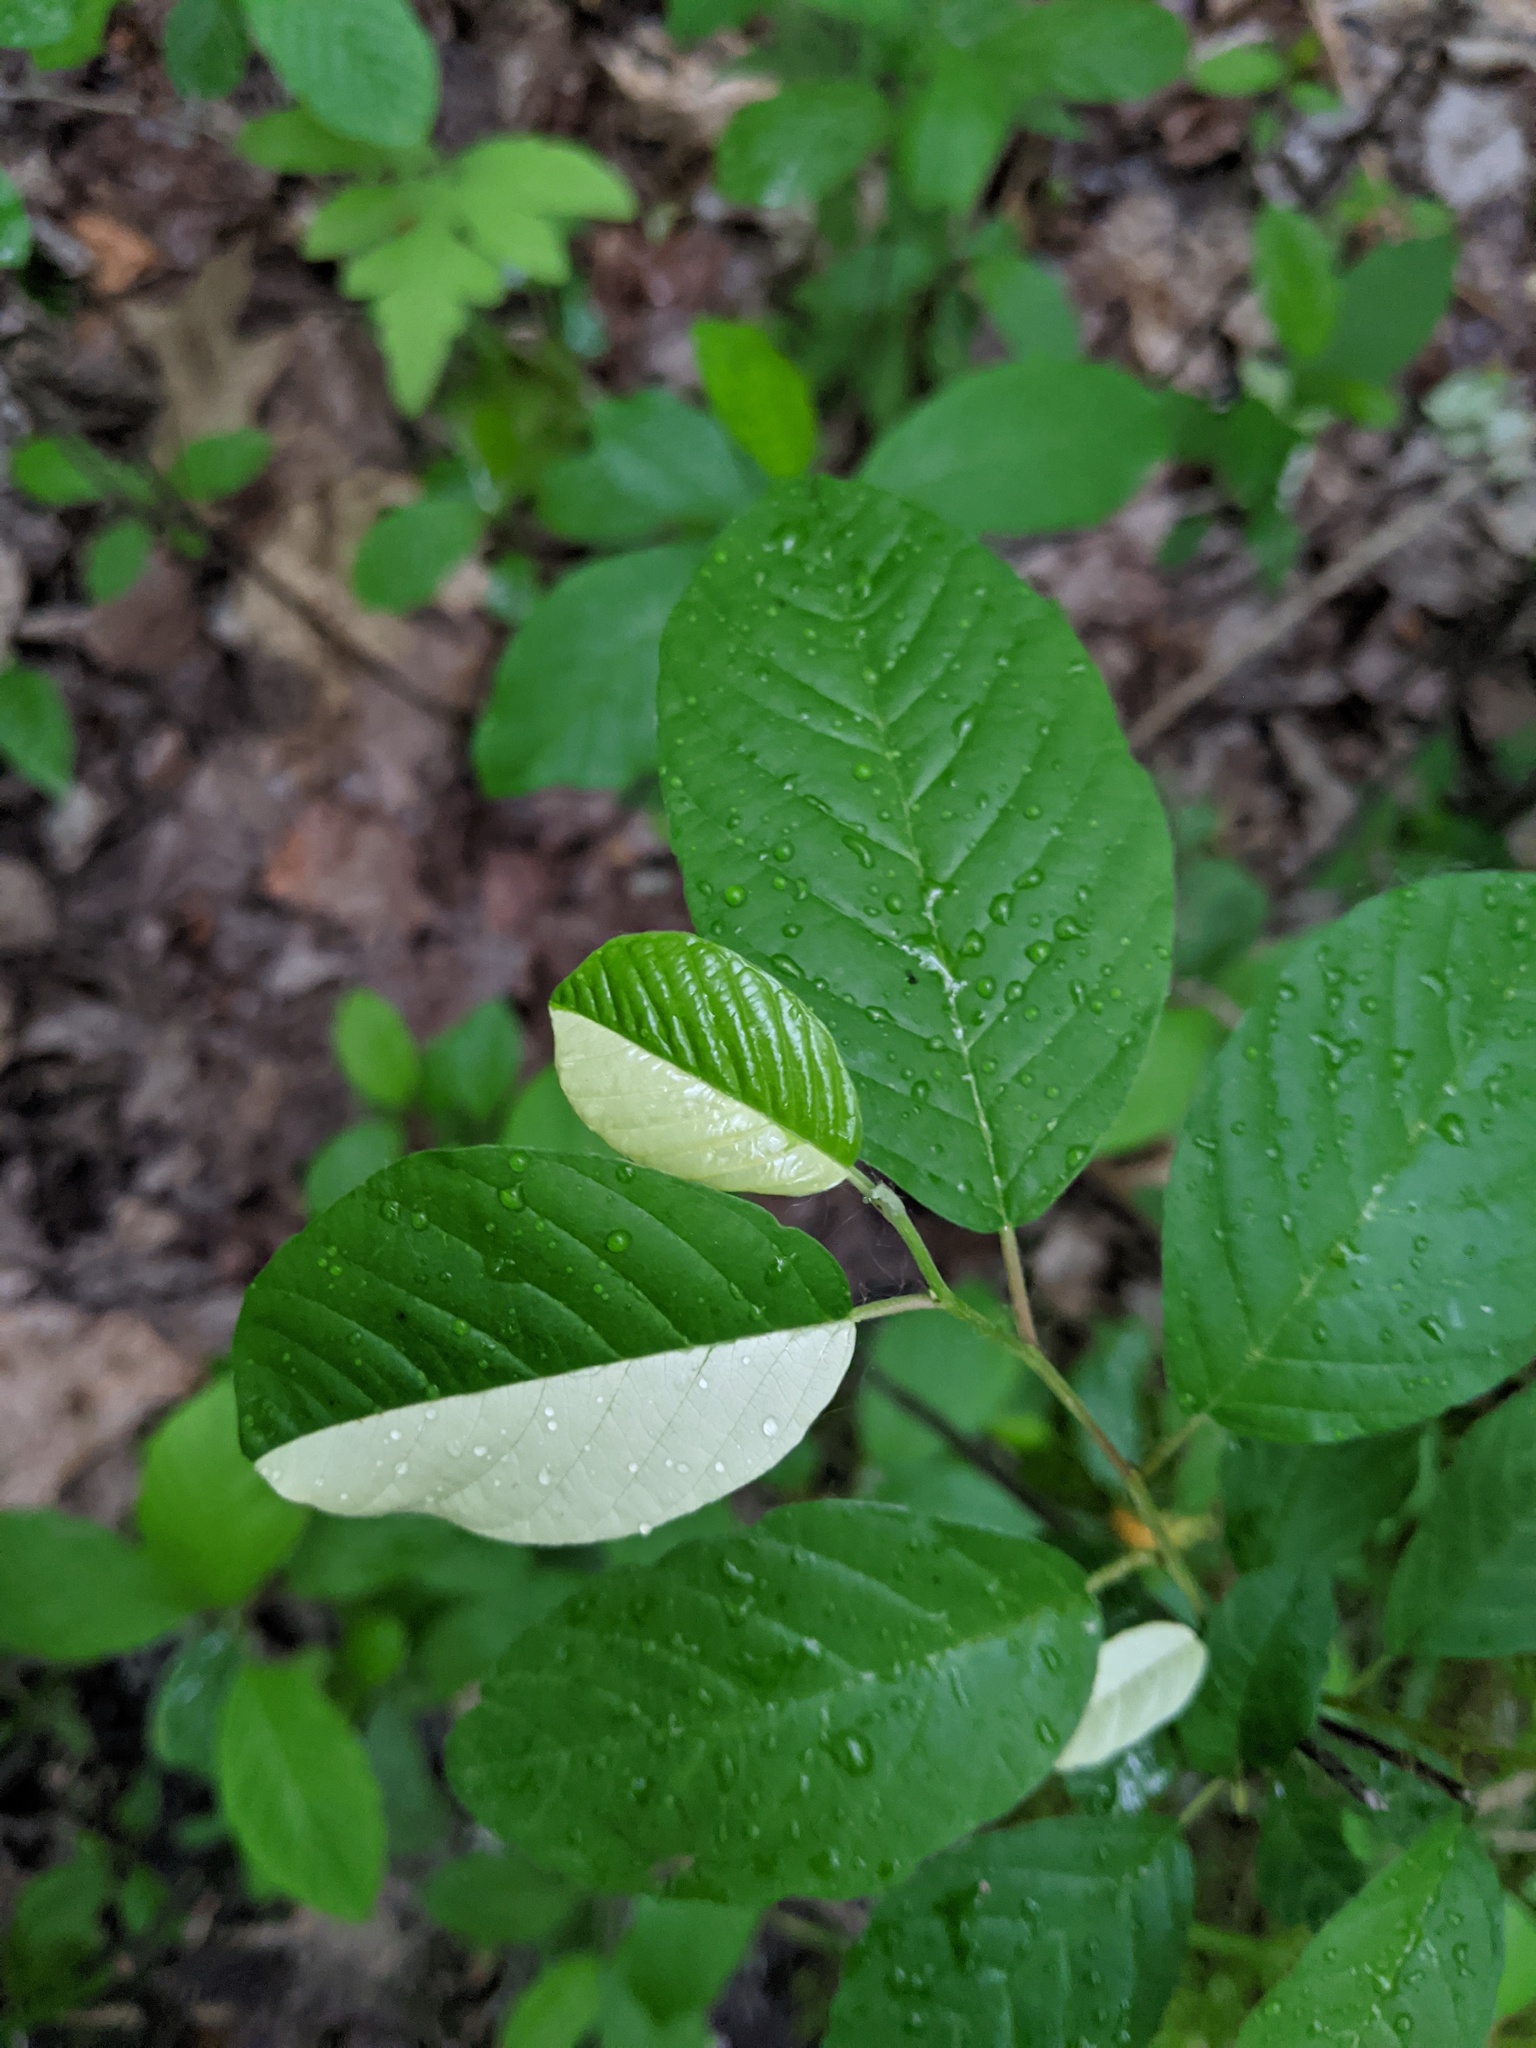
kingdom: Plantae
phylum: Tracheophyta
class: Magnoliopsida
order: Rosales
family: Rhamnaceae
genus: Frangula
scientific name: Frangula alnus
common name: Alder buckthorn
